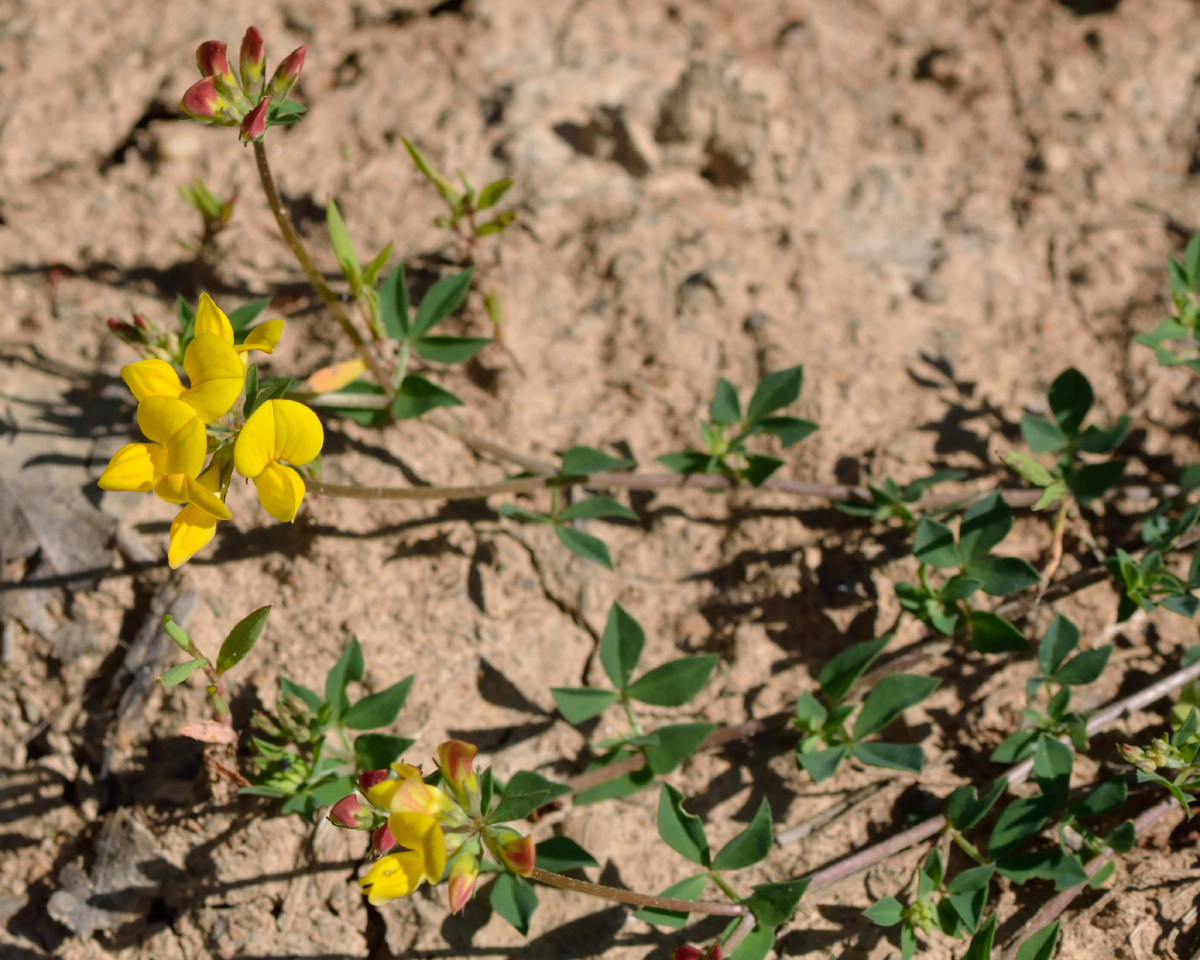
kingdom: Plantae
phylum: Tracheophyta
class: Magnoliopsida
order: Fabales
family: Fabaceae
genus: Lotus
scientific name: Lotus corniculatus
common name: Common bird's-foot-trefoil
